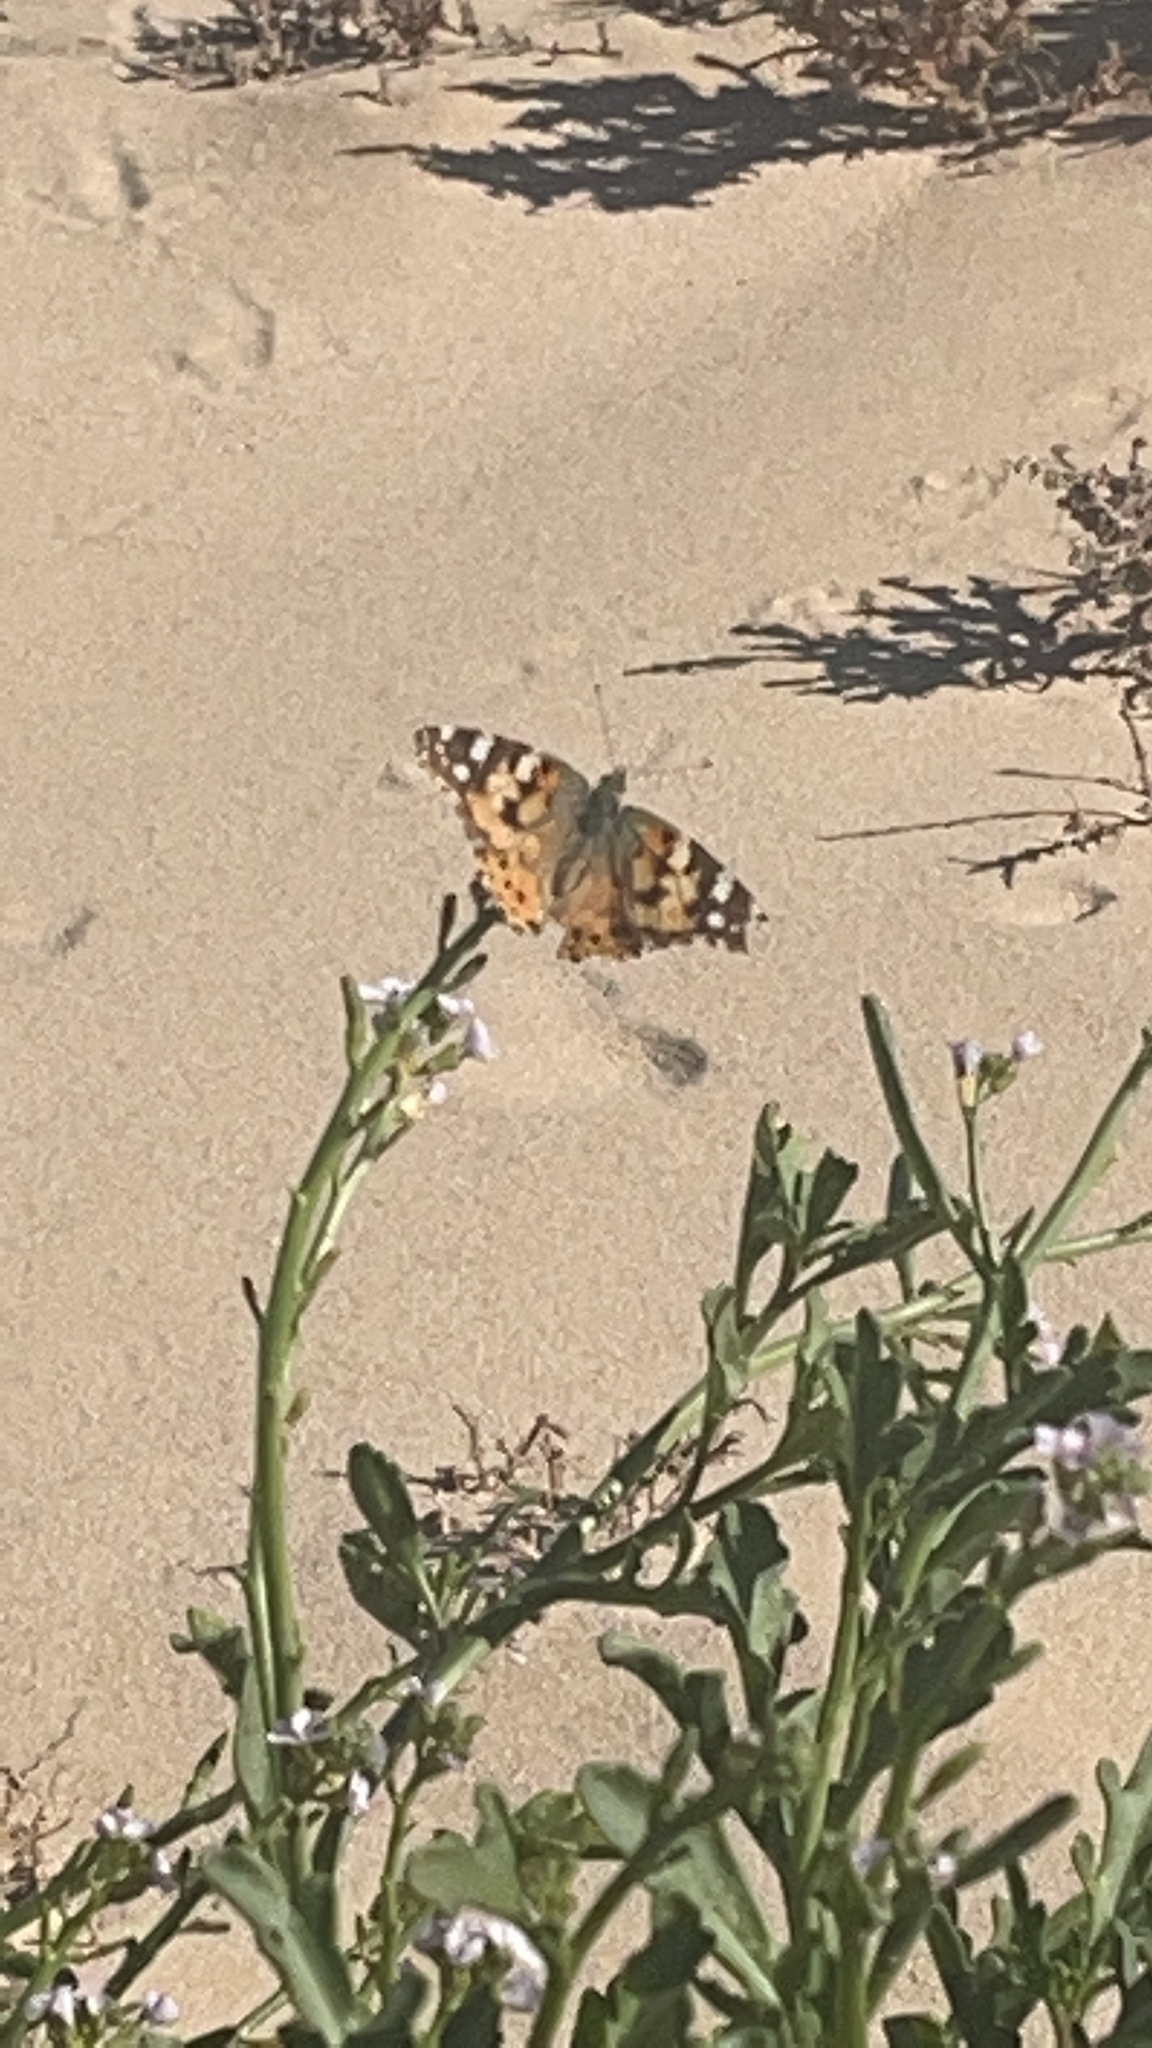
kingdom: Animalia
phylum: Arthropoda
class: Insecta
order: Lepidoptera
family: Nymphalidae
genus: Vanessa
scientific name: Vanessa cardui
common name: Painted lady
